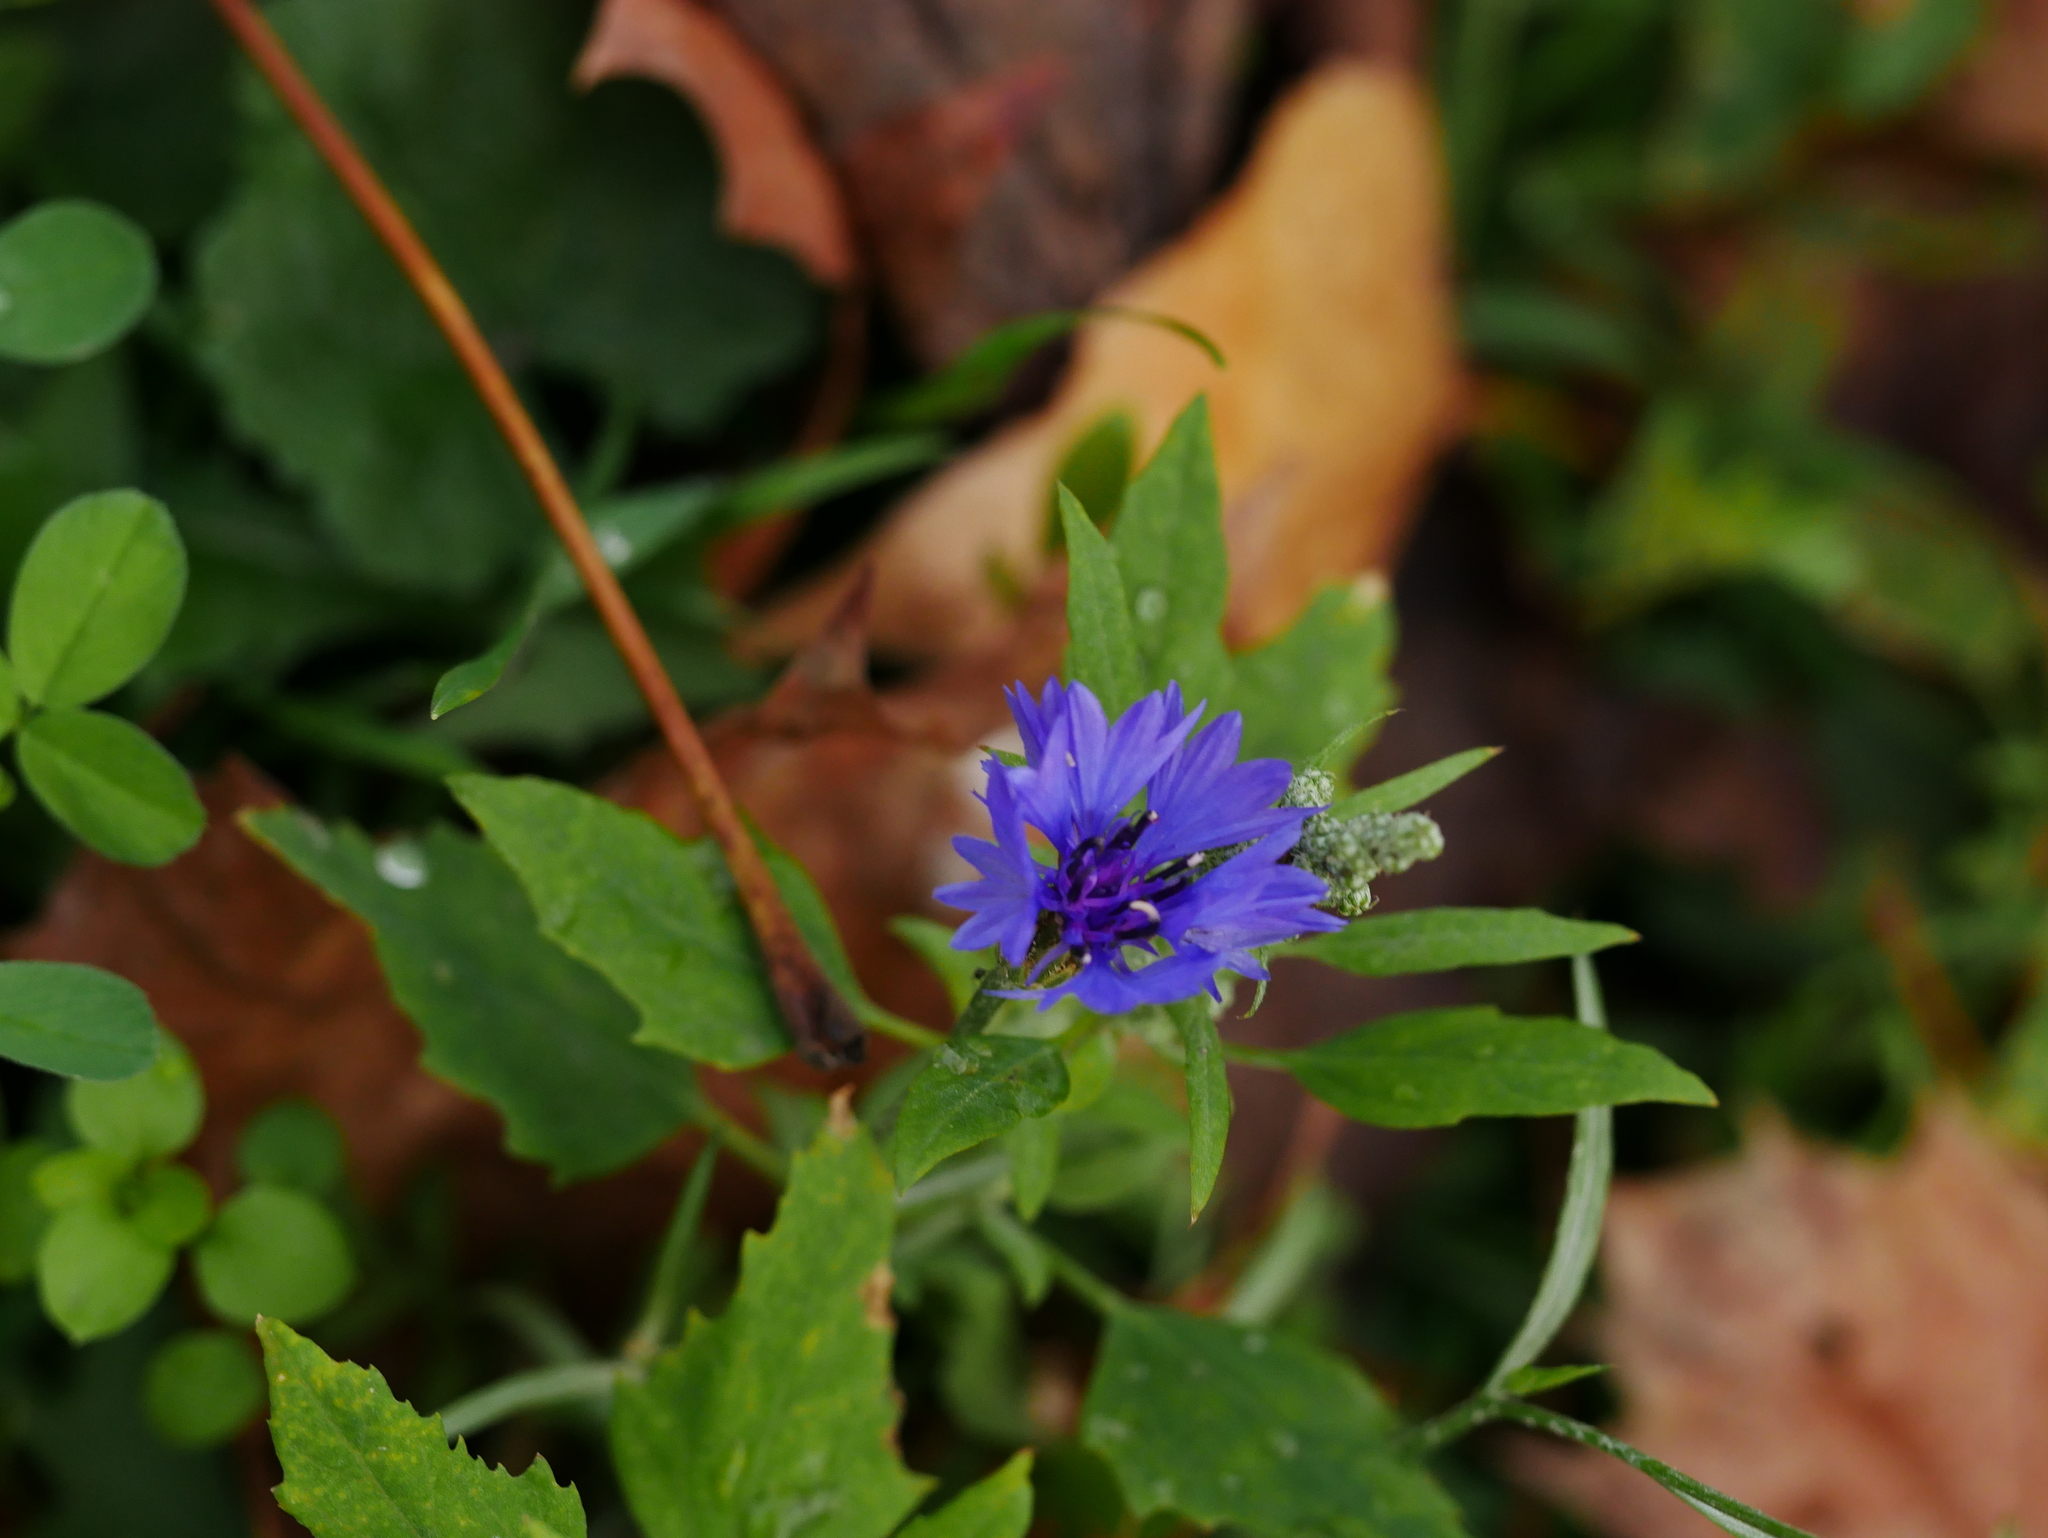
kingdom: Plantae
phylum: Tracheophyta
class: Magnoliopsida
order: Asterales
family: Asteraceae
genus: Centaurea
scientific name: Centaurea cyanus
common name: Cornflower
